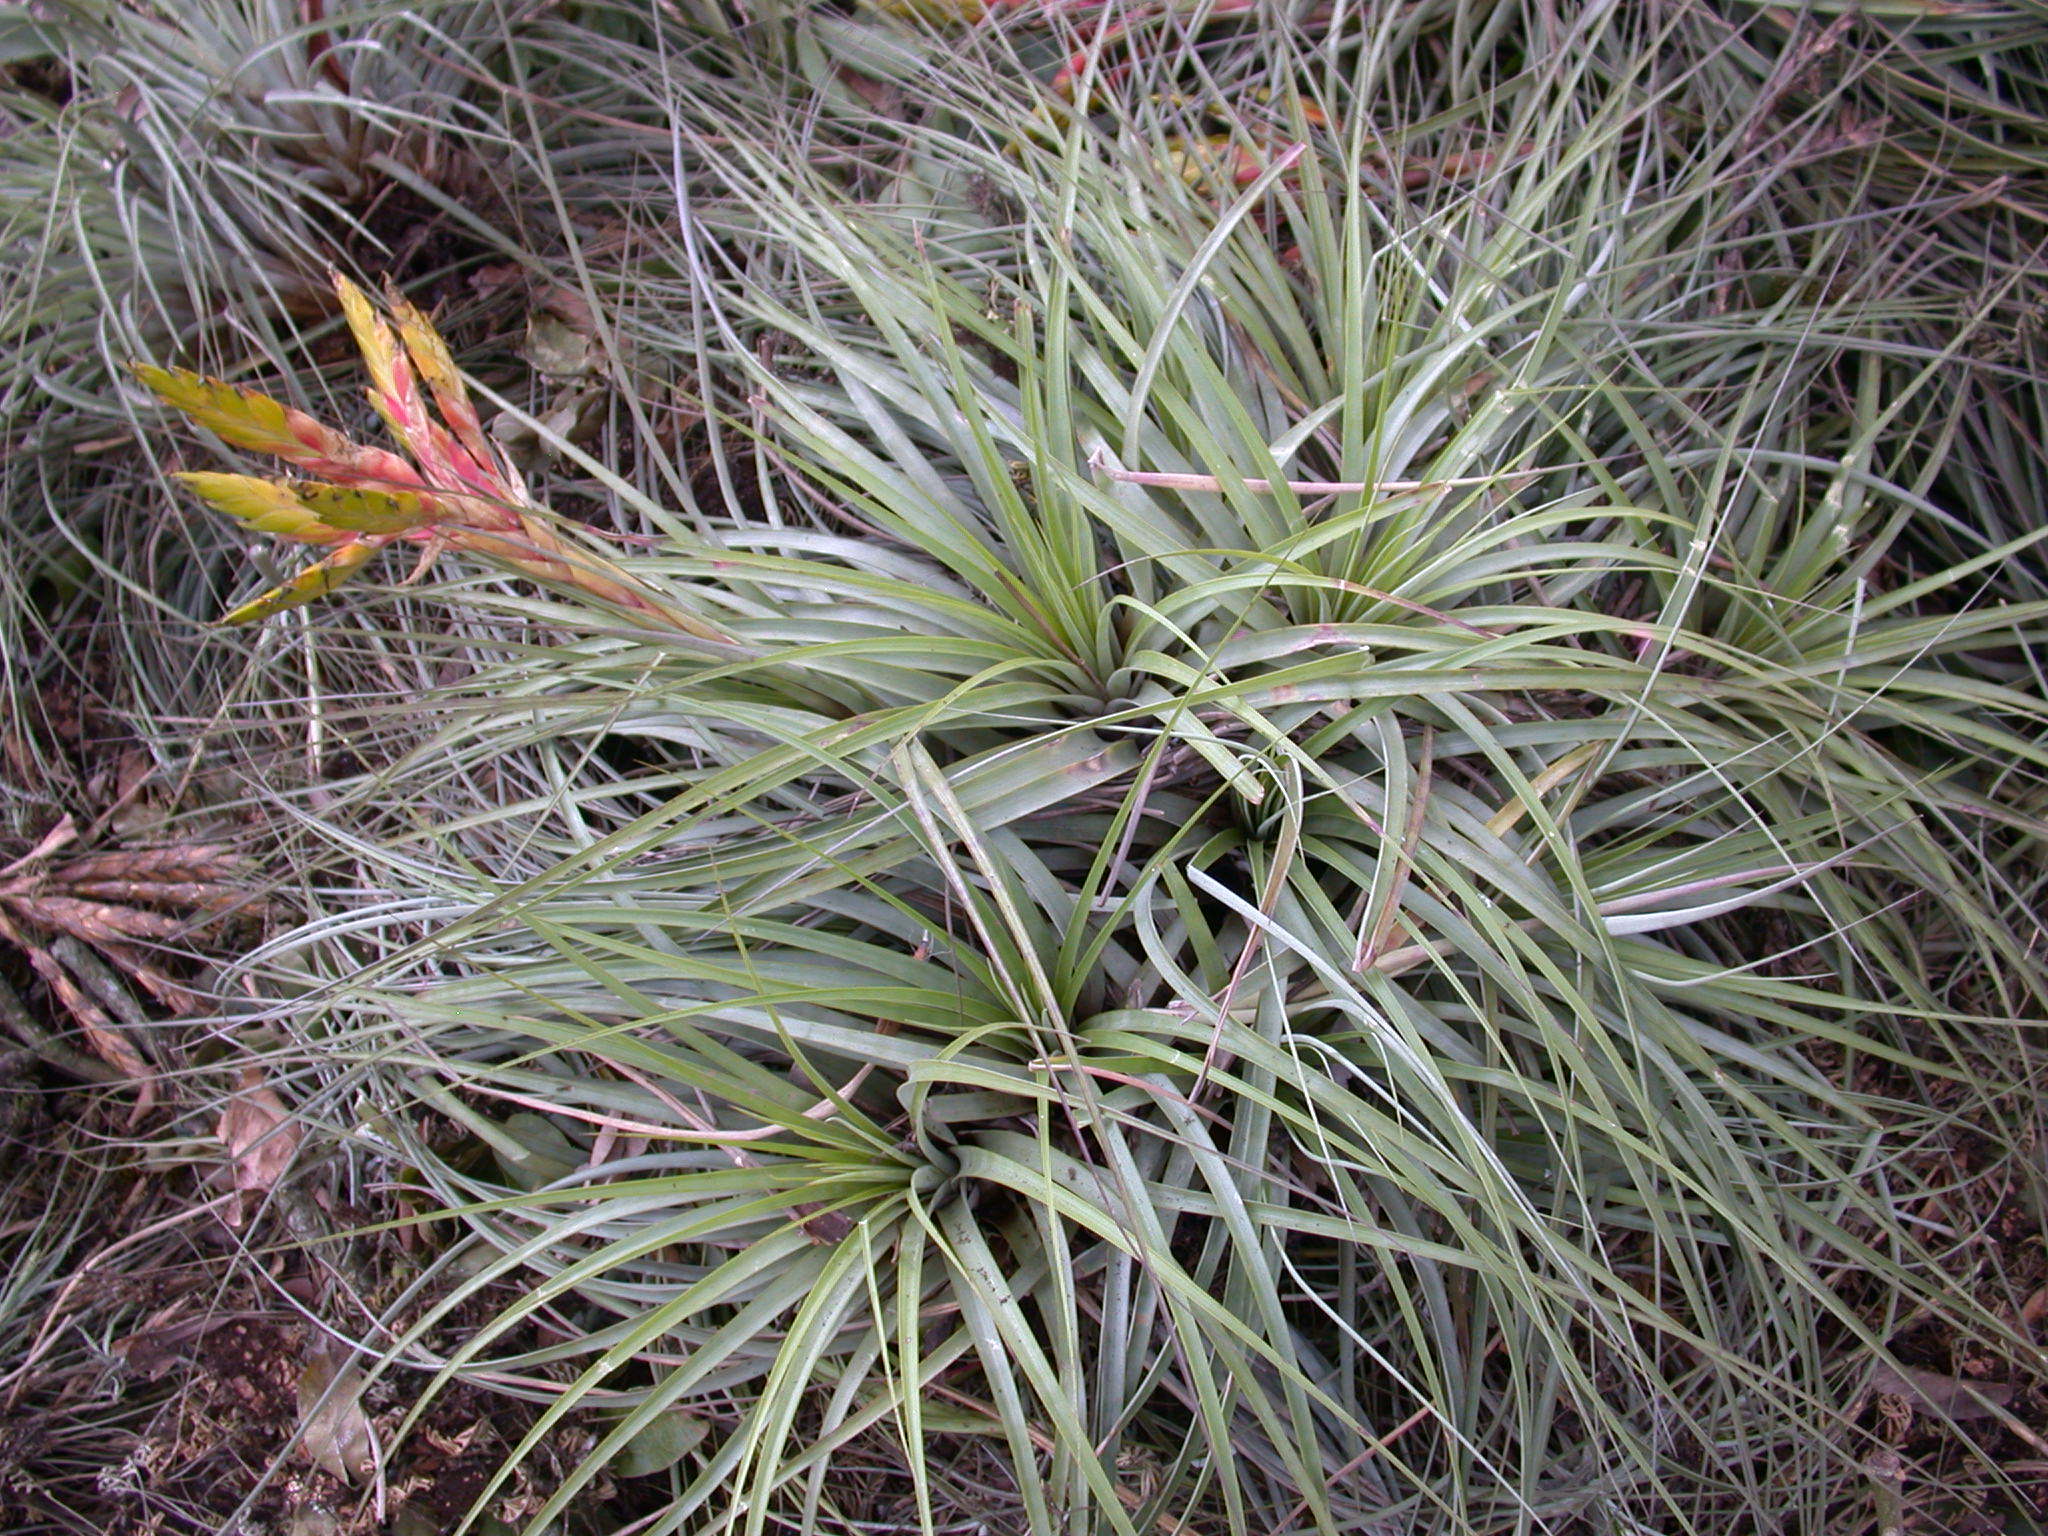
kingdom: Plantae
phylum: Tracheophyta
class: Liliopsida
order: Poales
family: Bromeliaceae
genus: Tillandsia
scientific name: Tillandsia fasciculata
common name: Giant airplant
